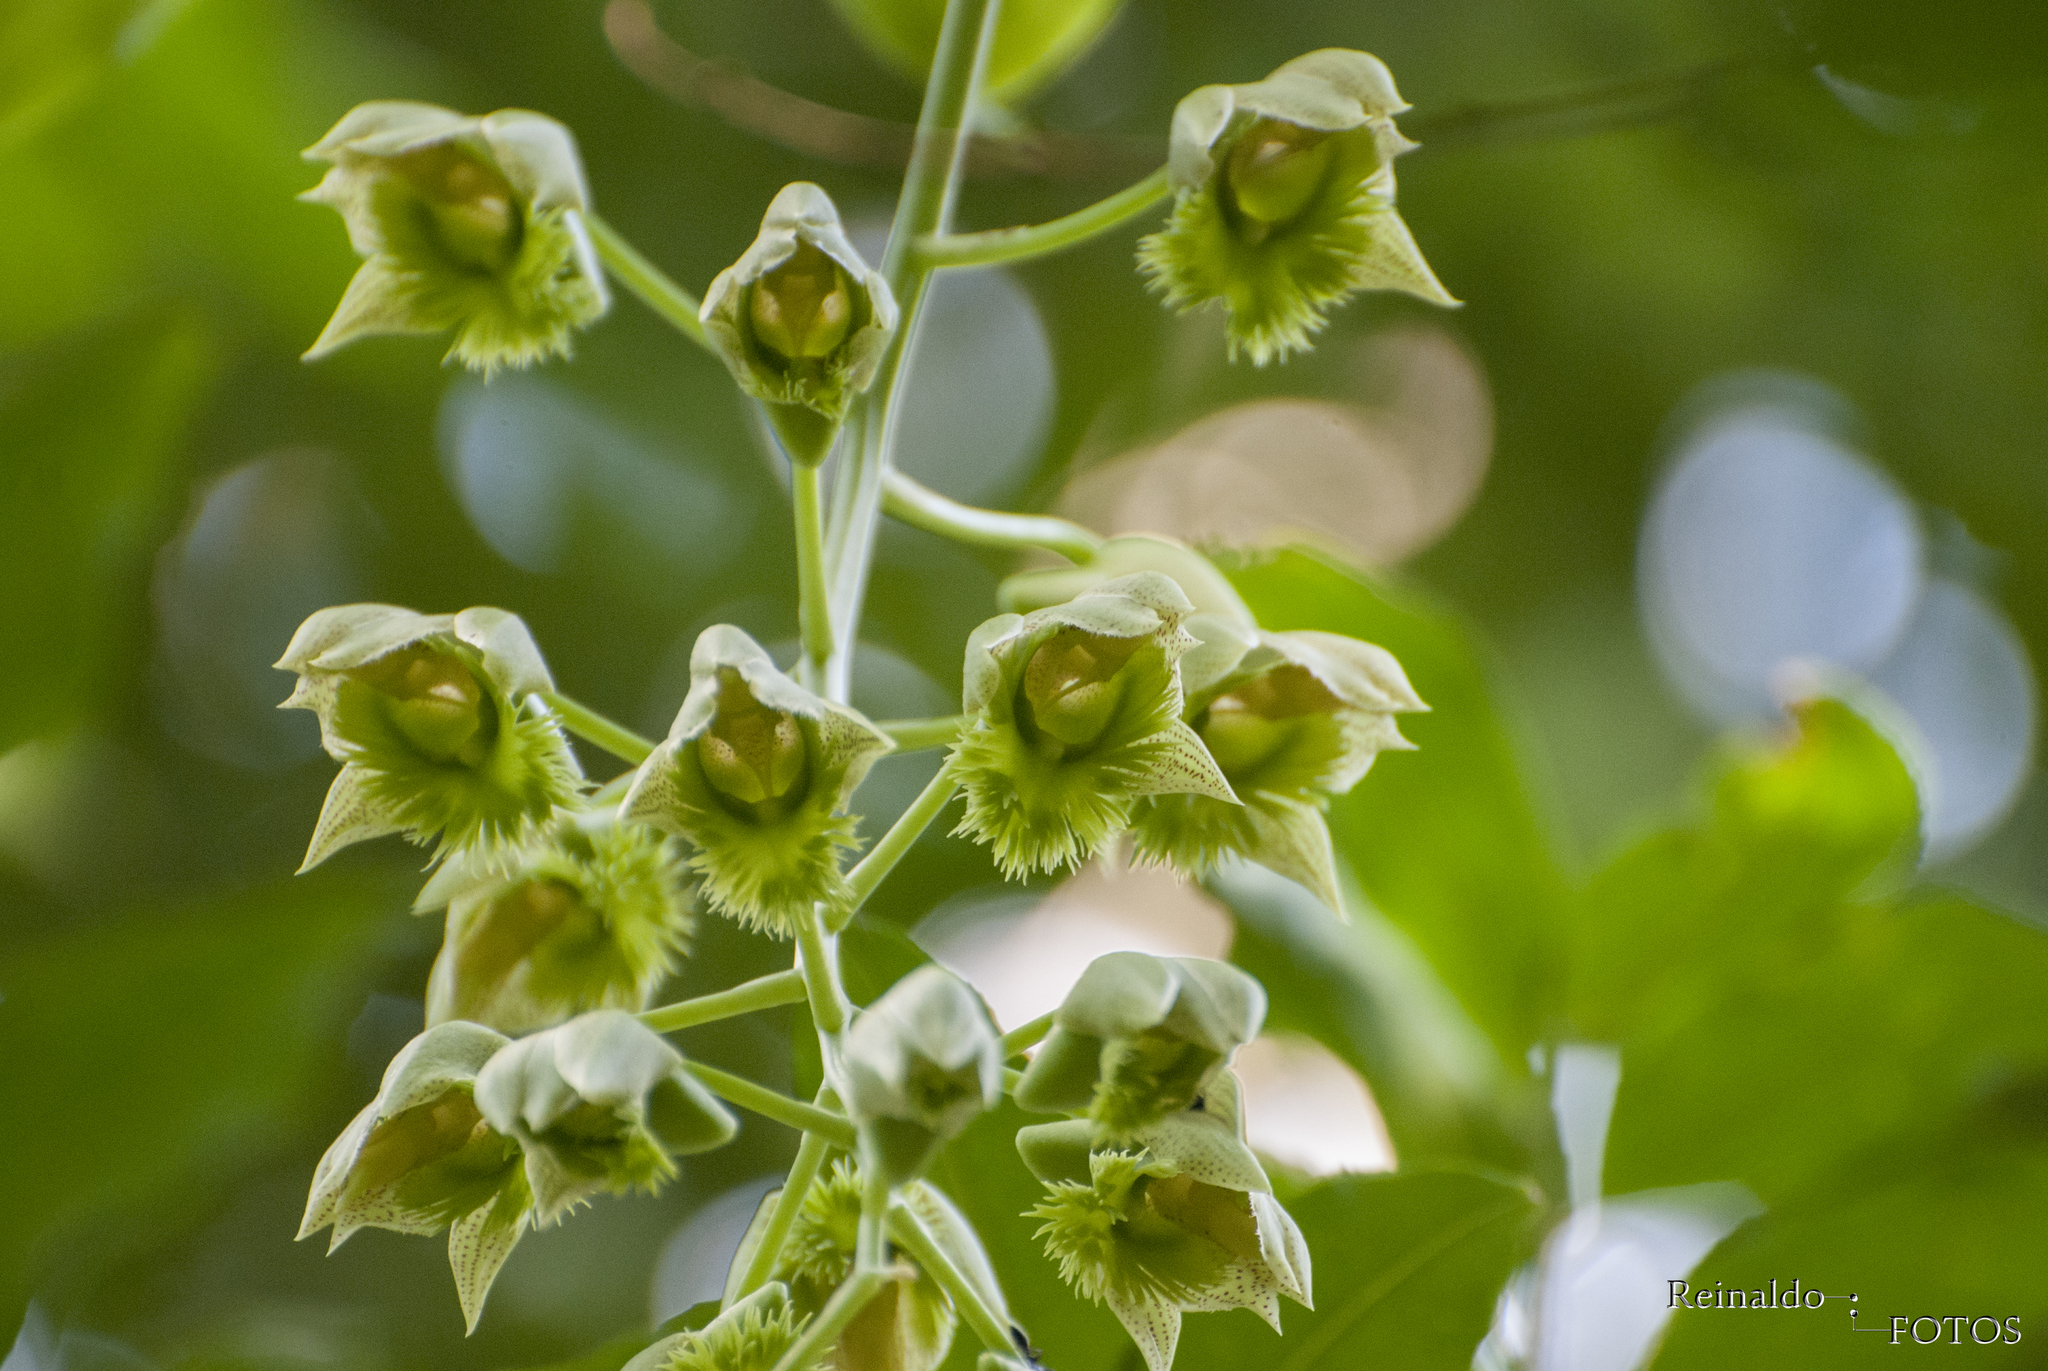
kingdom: Plantae
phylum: Tracheophyta
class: Liliopsida
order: Asparagales
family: Orchidaceae
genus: Catasetum
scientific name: Catasetum fimbriatum
